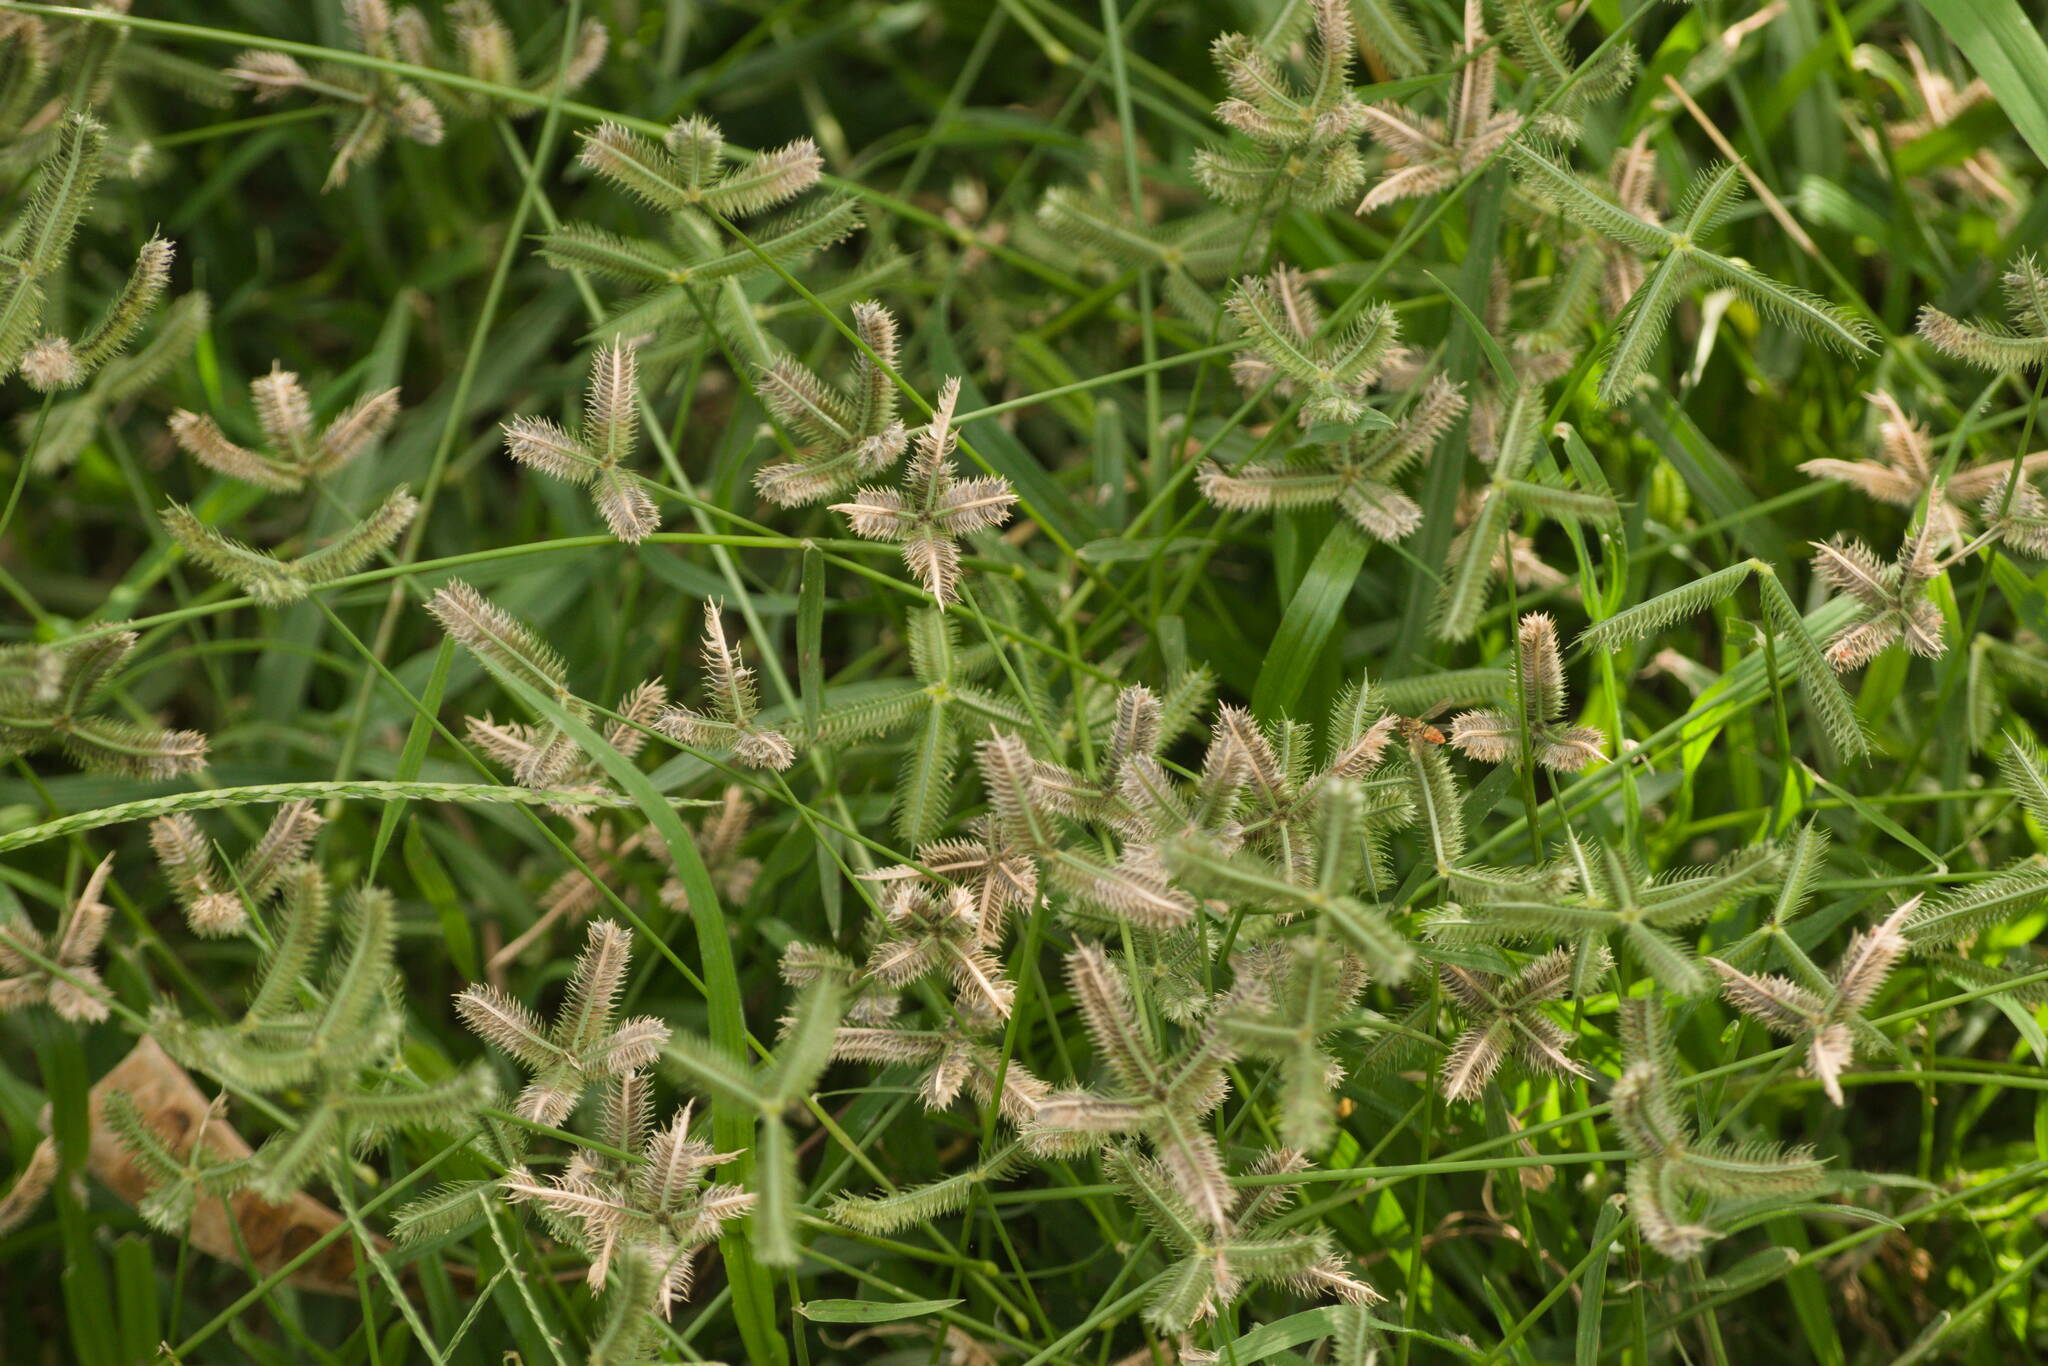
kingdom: Plantae
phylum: Tracheophyta
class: Liliopsida
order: Poales
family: Poaceae
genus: Dactyloctenium
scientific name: Dactyloctenium aegyptium
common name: Egyptian grass
